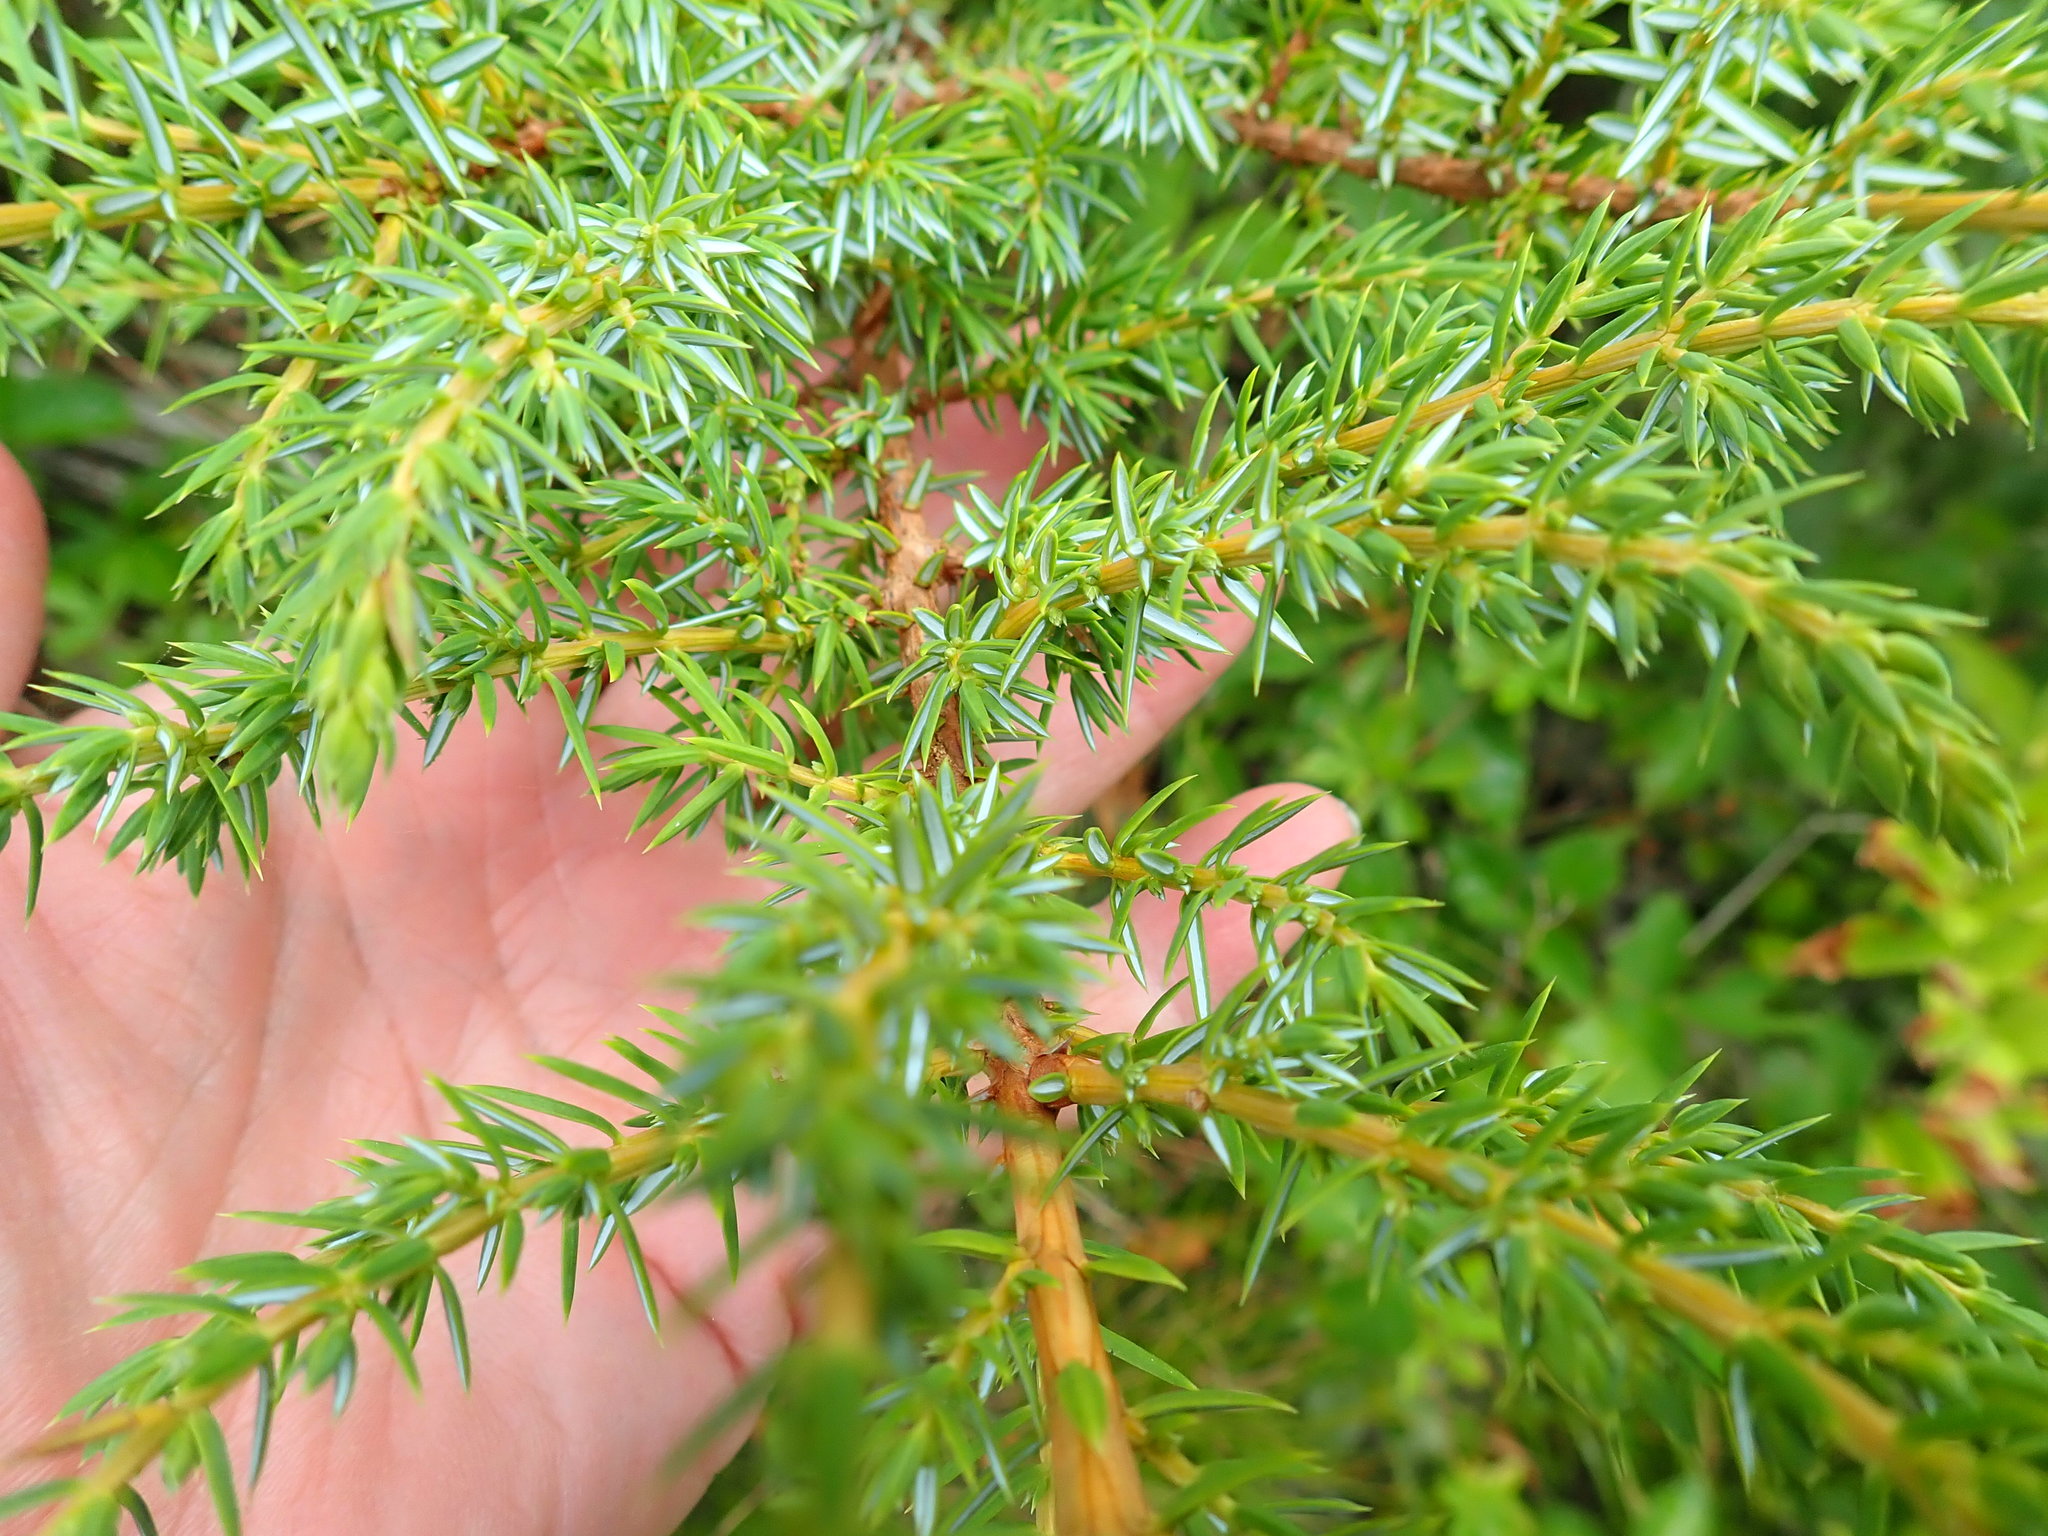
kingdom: Plantae
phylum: Tracheophyta
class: Pinopsida
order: Pinales
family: Cupressaceae
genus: Juniperus
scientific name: Juniperus communis
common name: Common juniper
